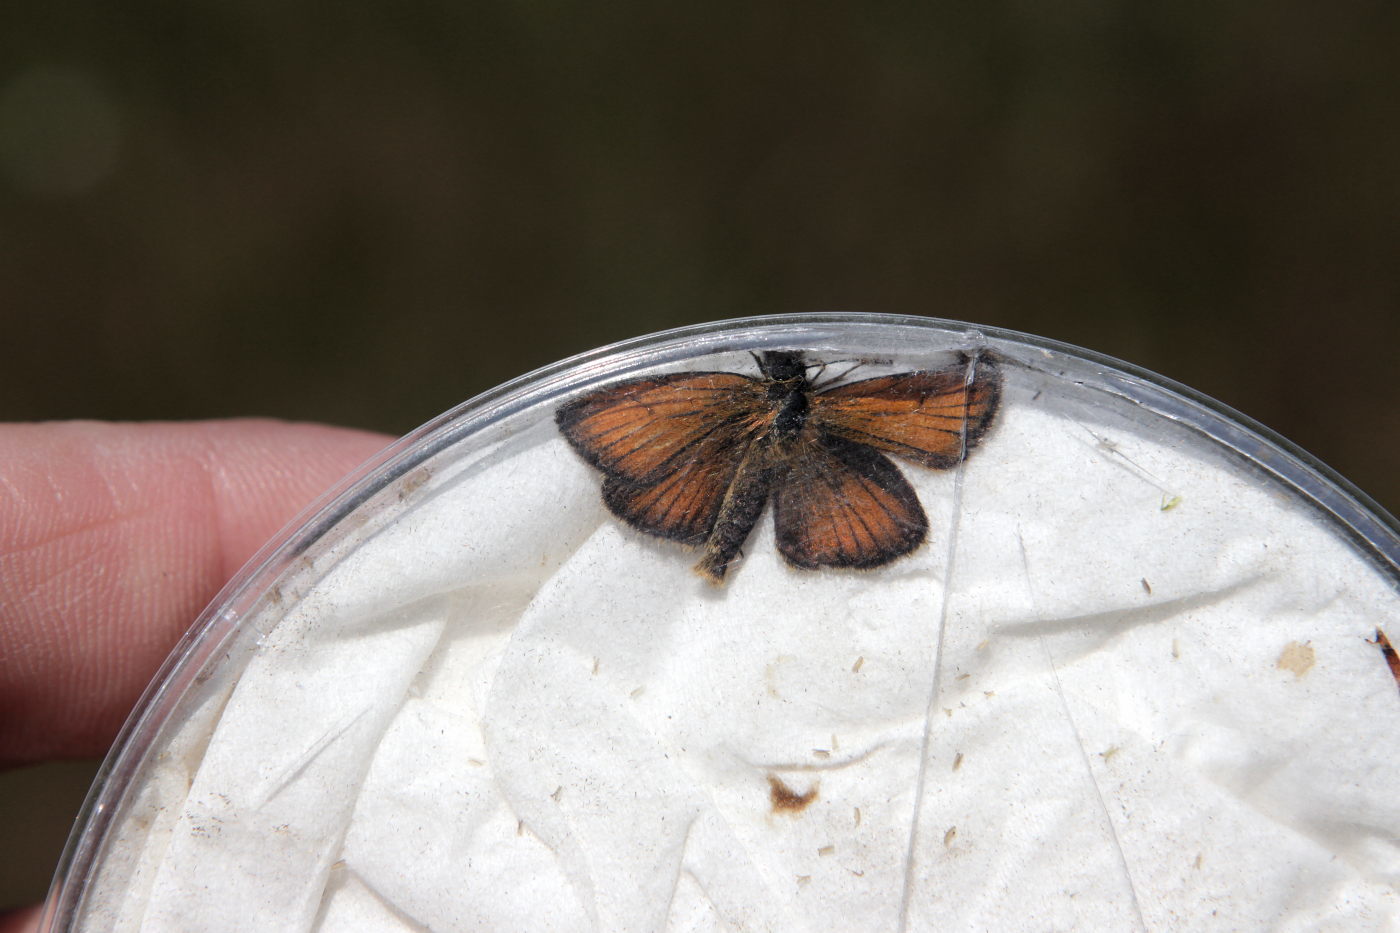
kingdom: Animalia
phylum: Arthropoda
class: Insecta
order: Lepidoptera
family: Hesperiidae
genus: Thymelicus
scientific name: Thymelicus lineola
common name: Essex skipper
